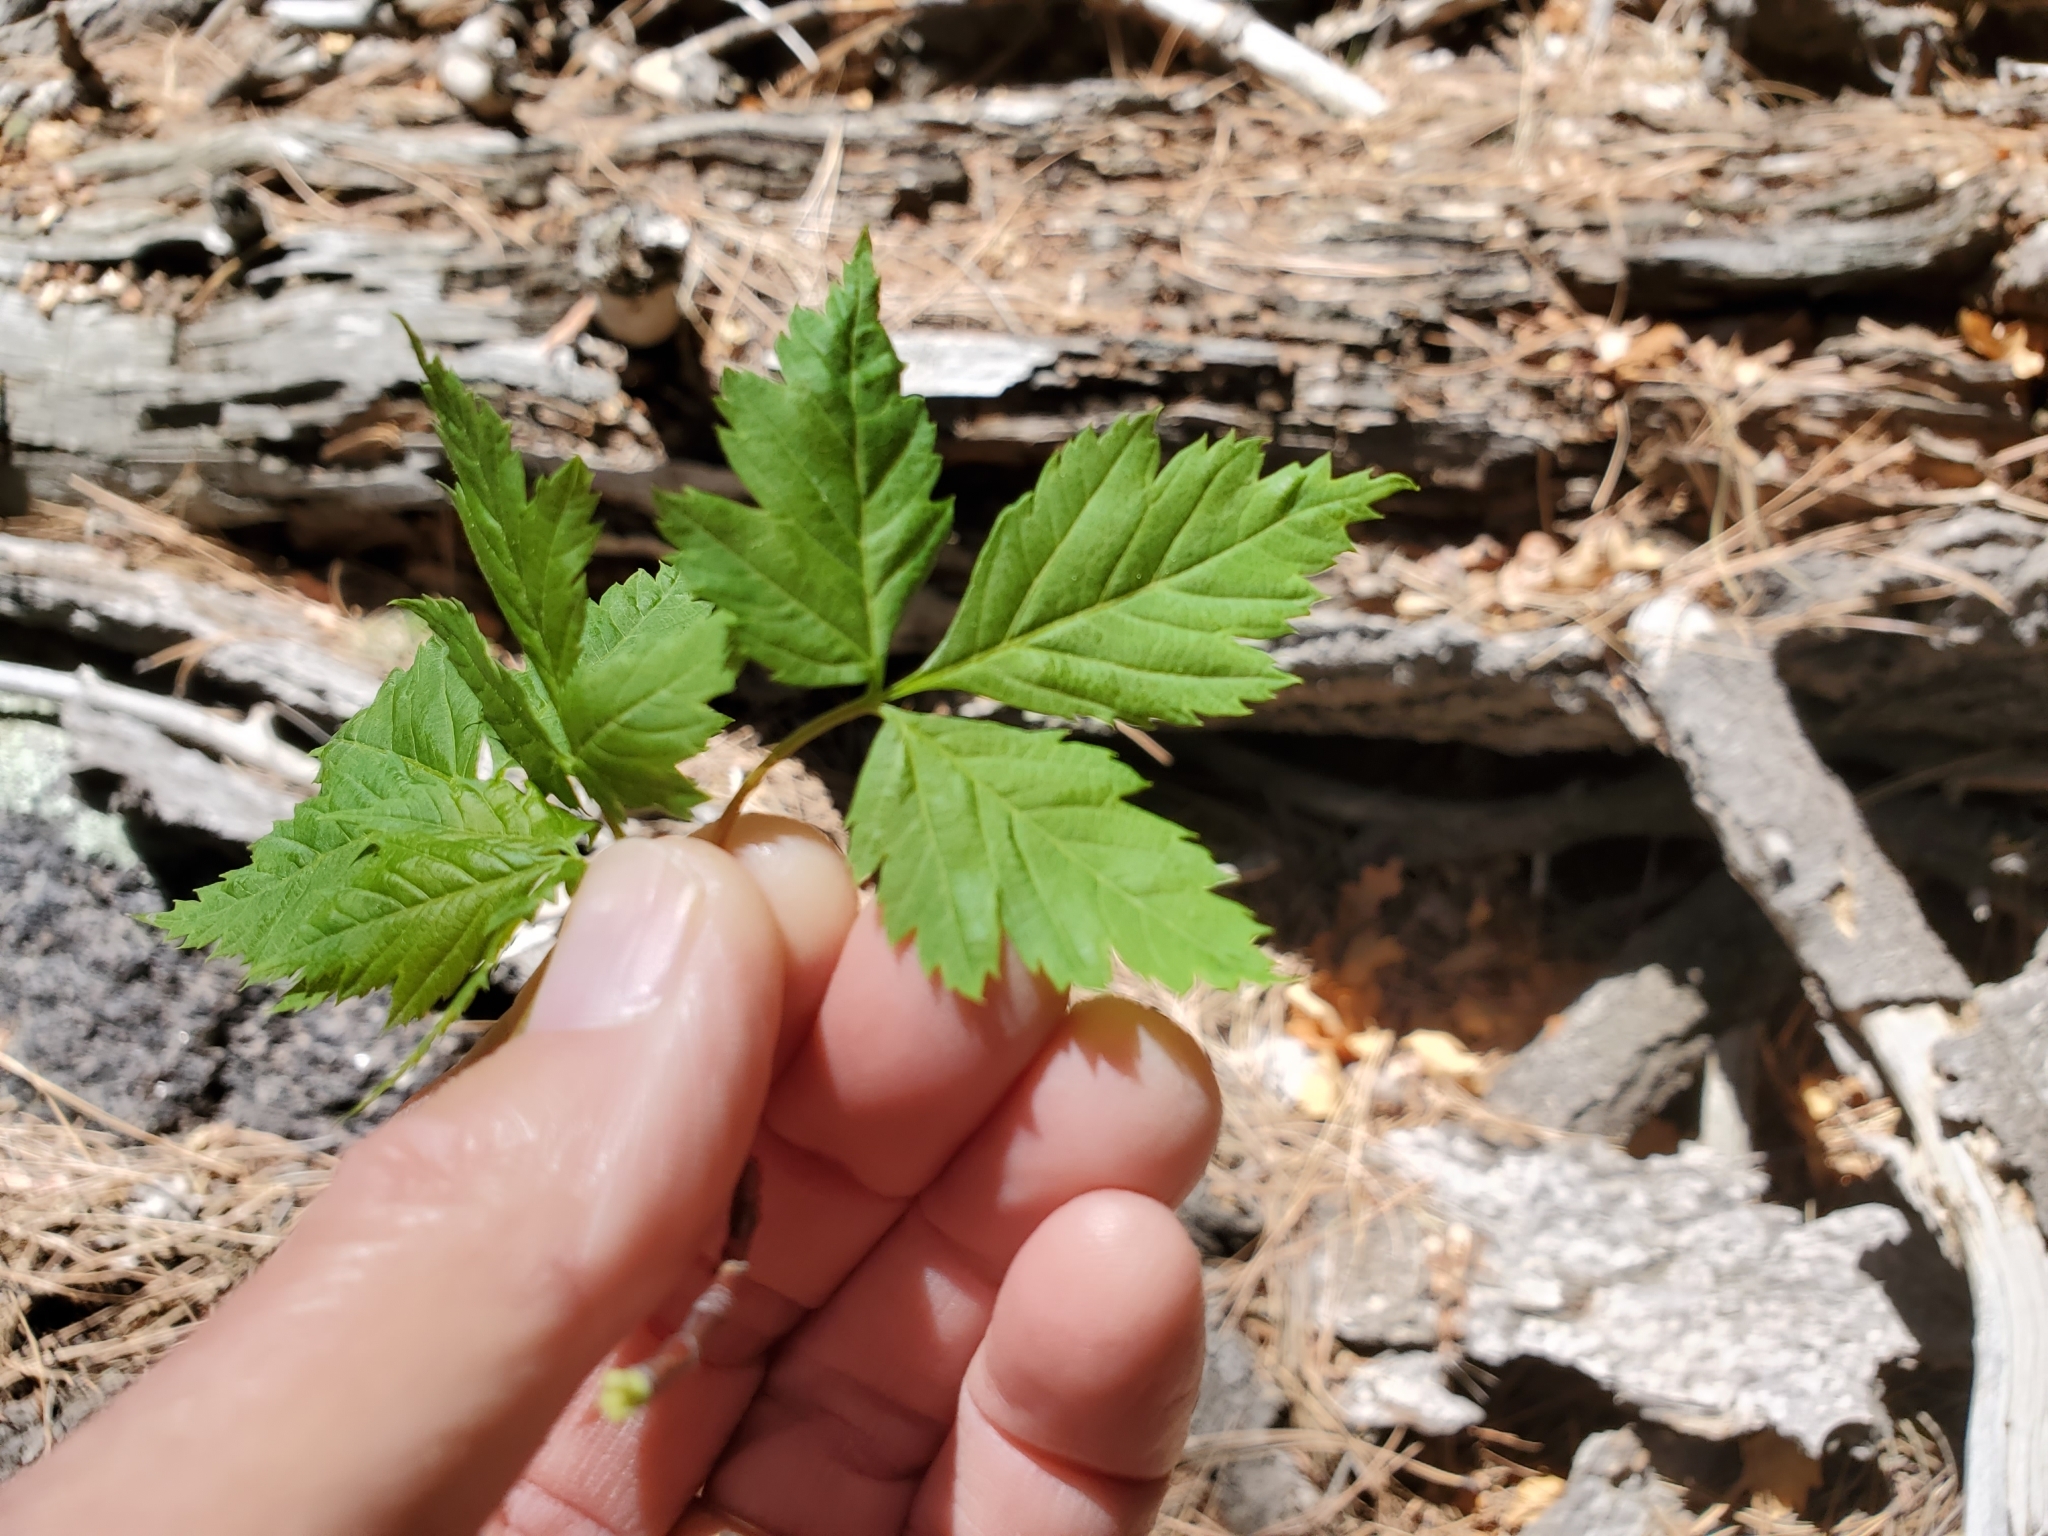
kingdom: Plantae
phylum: Tracheophyta
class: Magnoliopsida
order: Sapindales
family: Sapindaceae
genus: Acer
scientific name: Acer glabrum
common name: Rocky mountain maple
